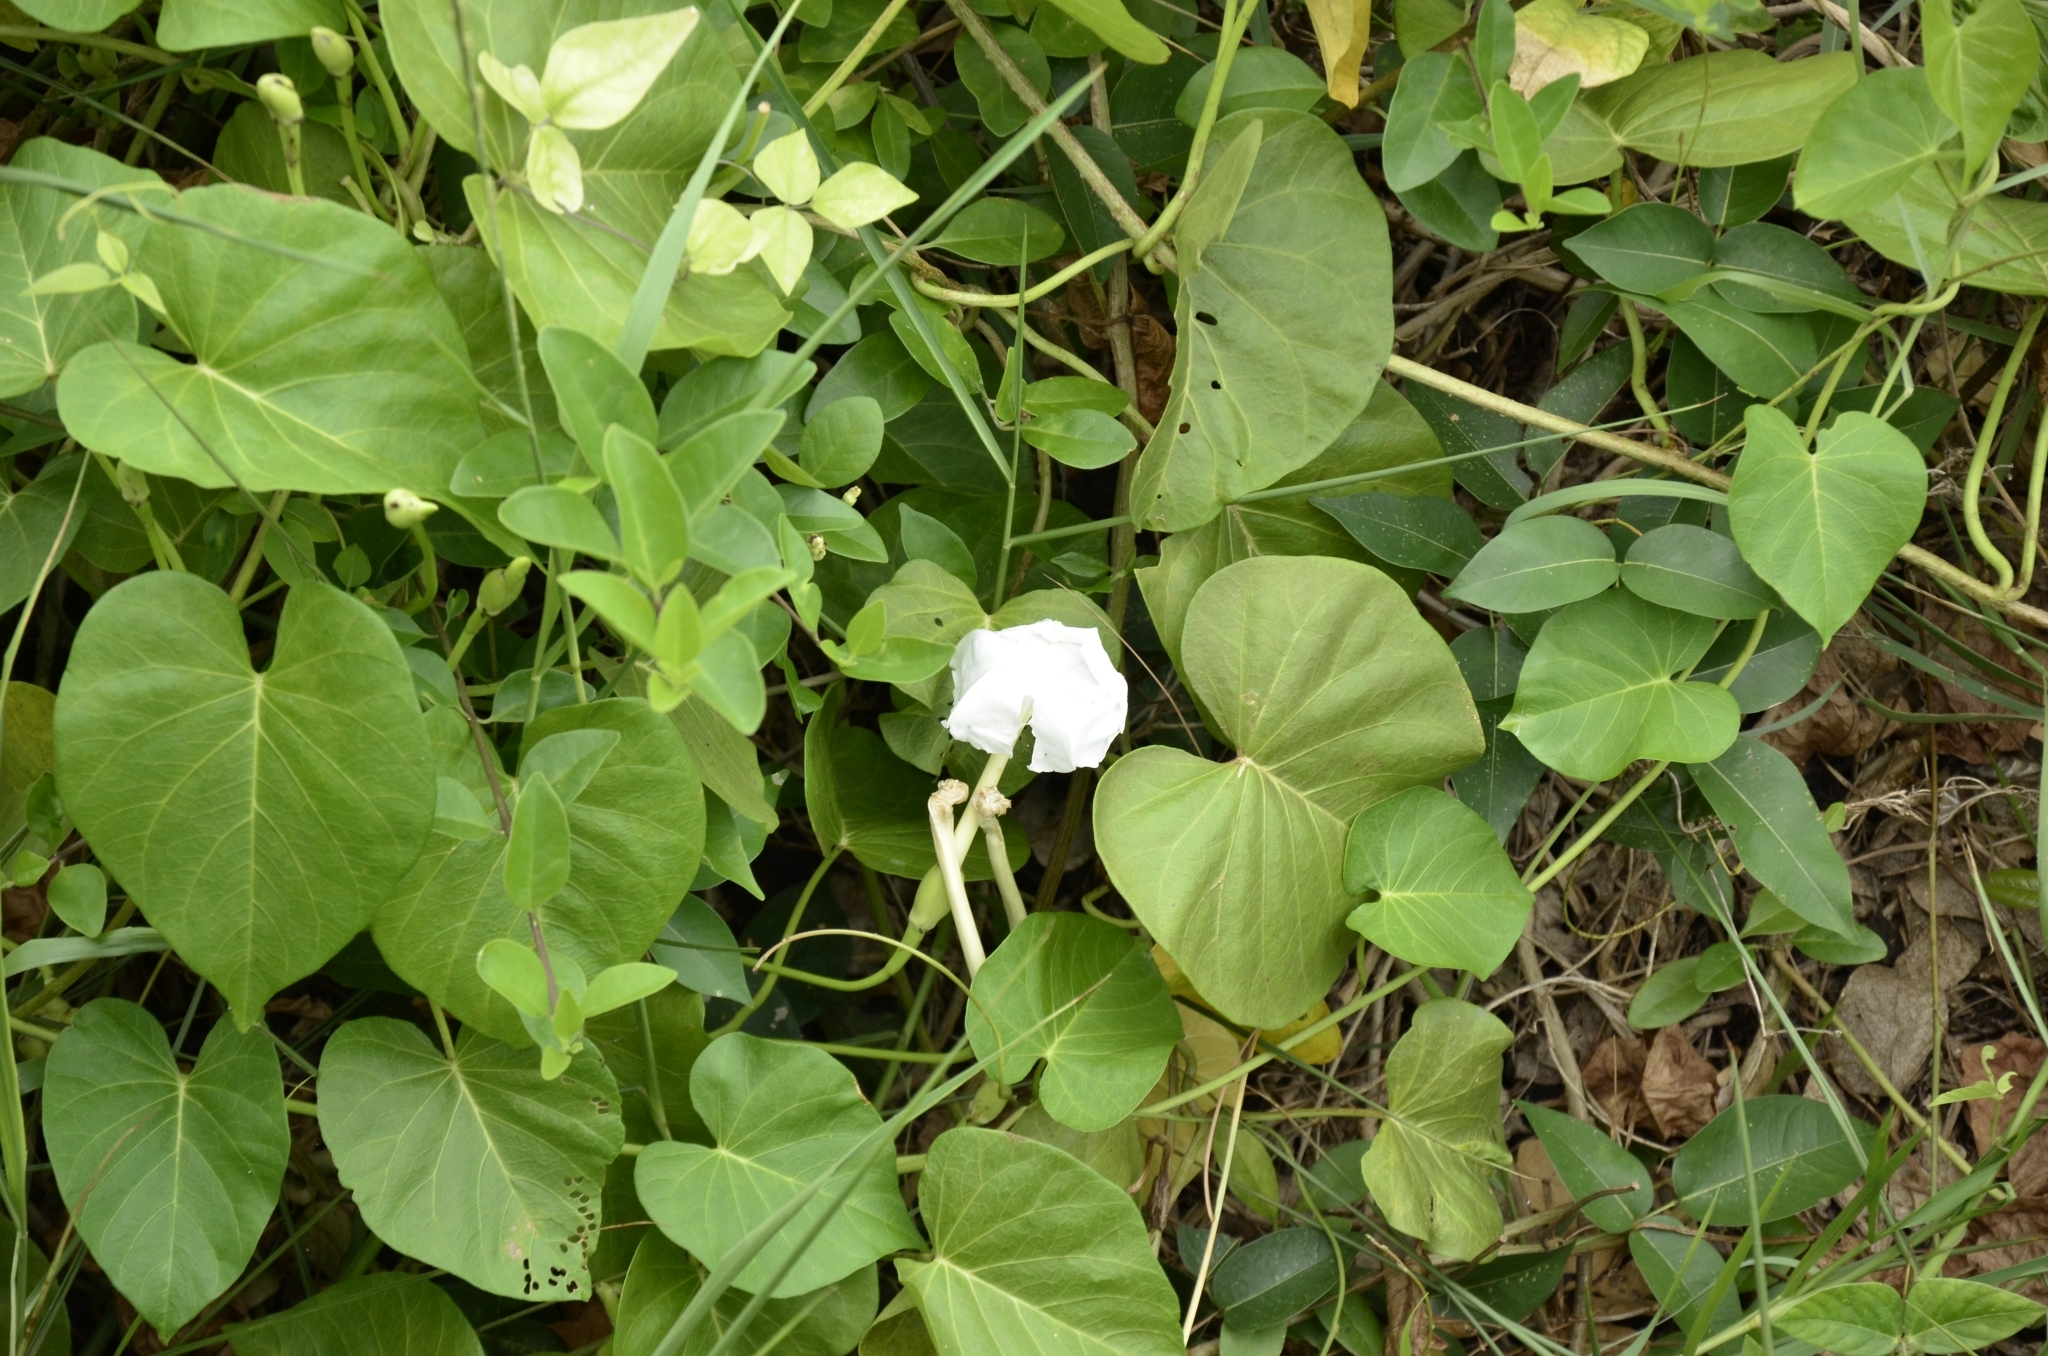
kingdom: Plantae
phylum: Tracheophyta
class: Magnoliopsida
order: Solanales
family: Convolvulaceae
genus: Ipomoea
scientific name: Ipomoea alba
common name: Moonflower
